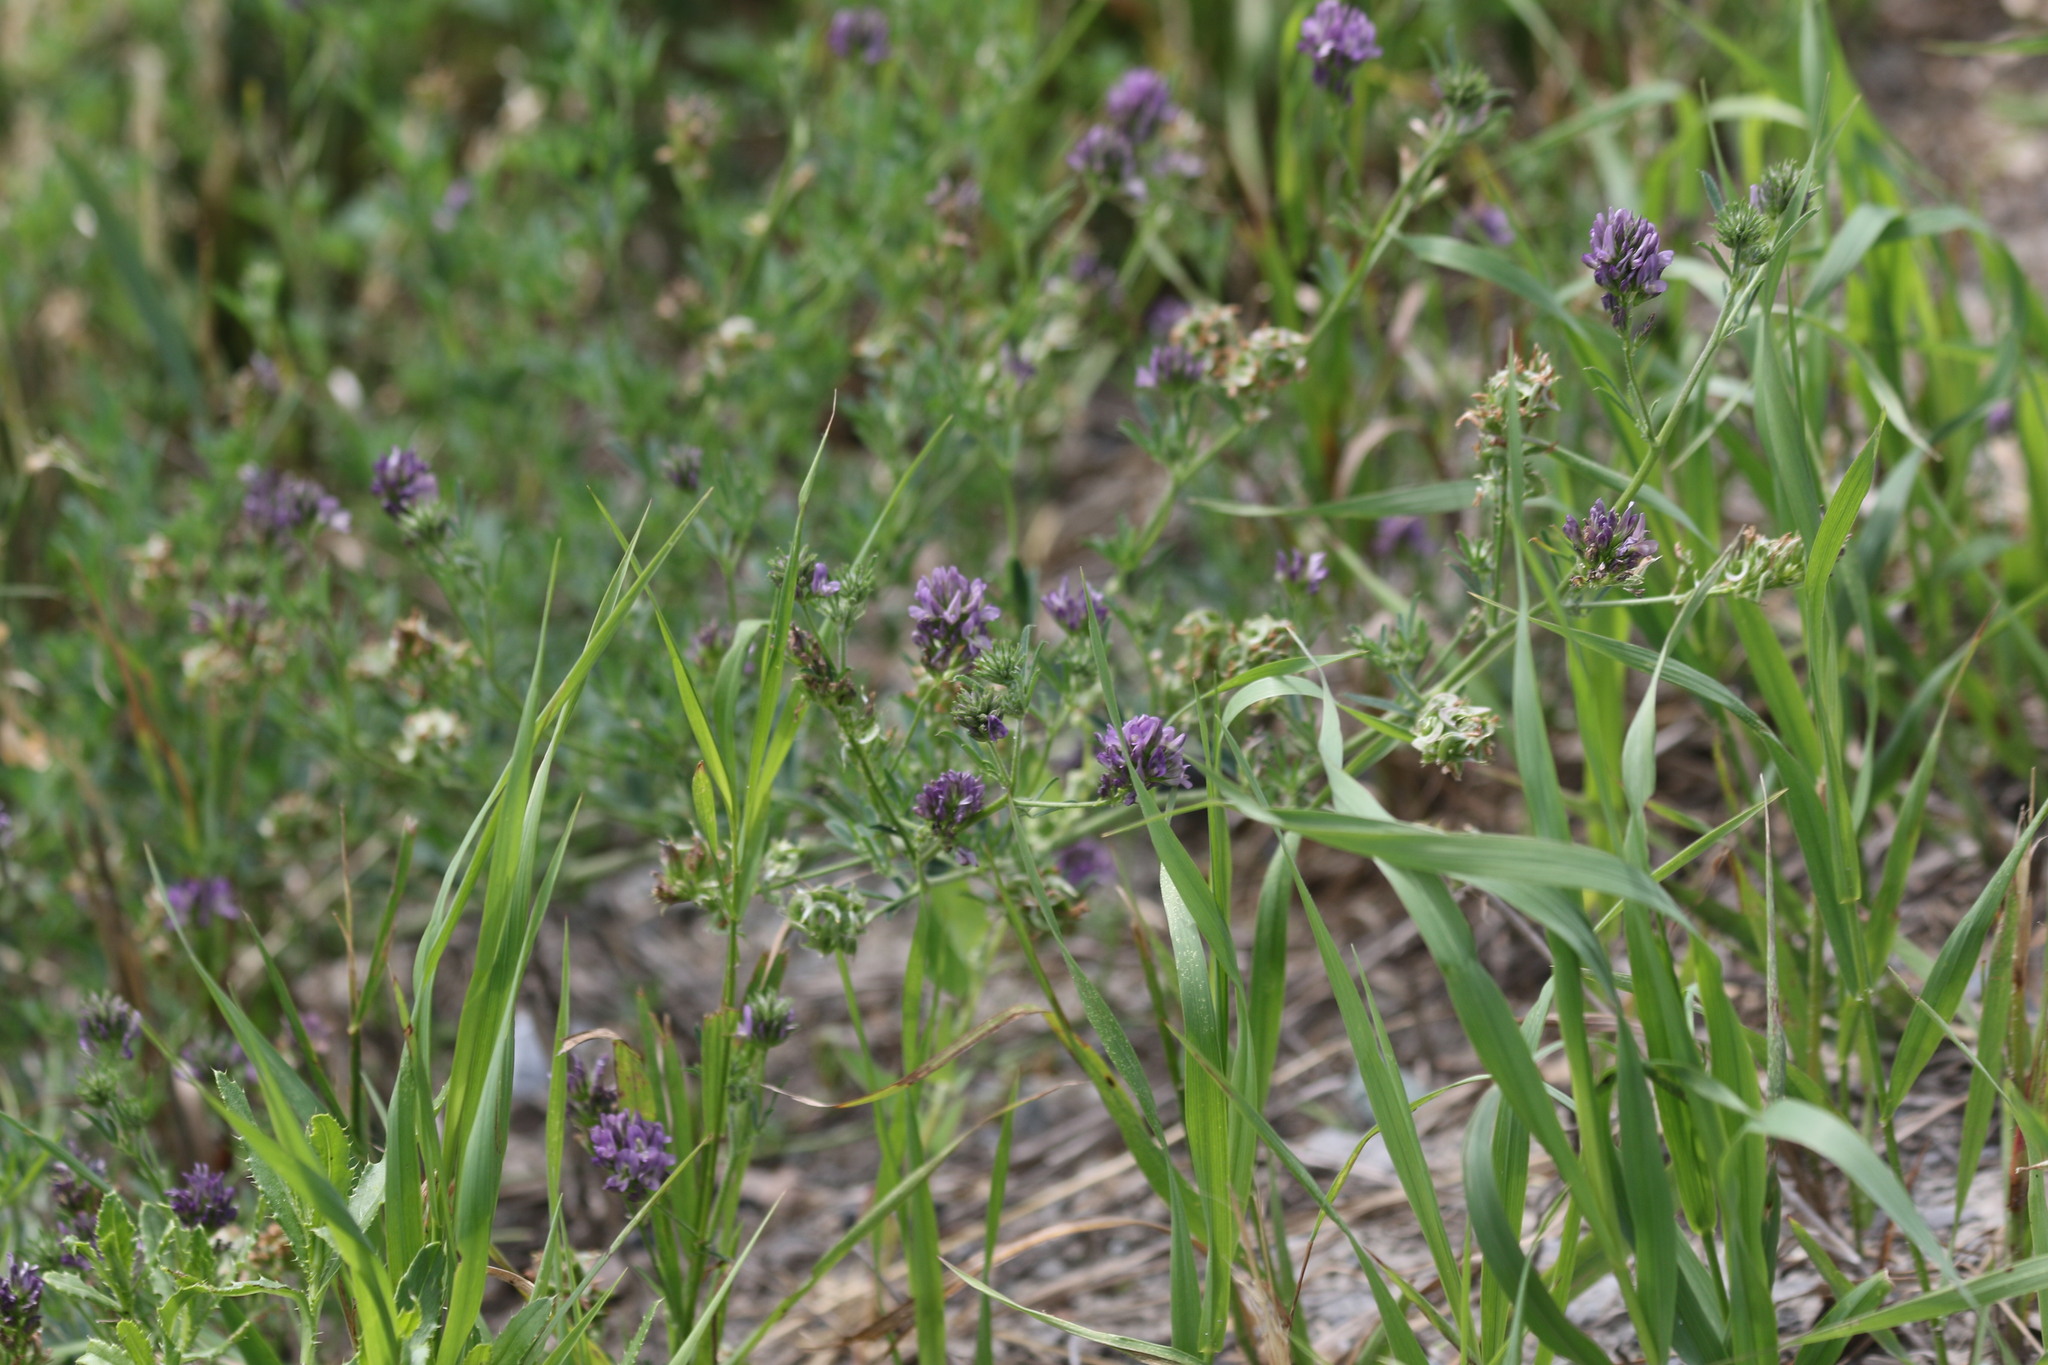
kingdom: Plantae
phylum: Tracheophyta
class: Magnoliopsida
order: Fabales
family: Fabaceae
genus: Medicago
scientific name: Medicago varia
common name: Sand lucerne
